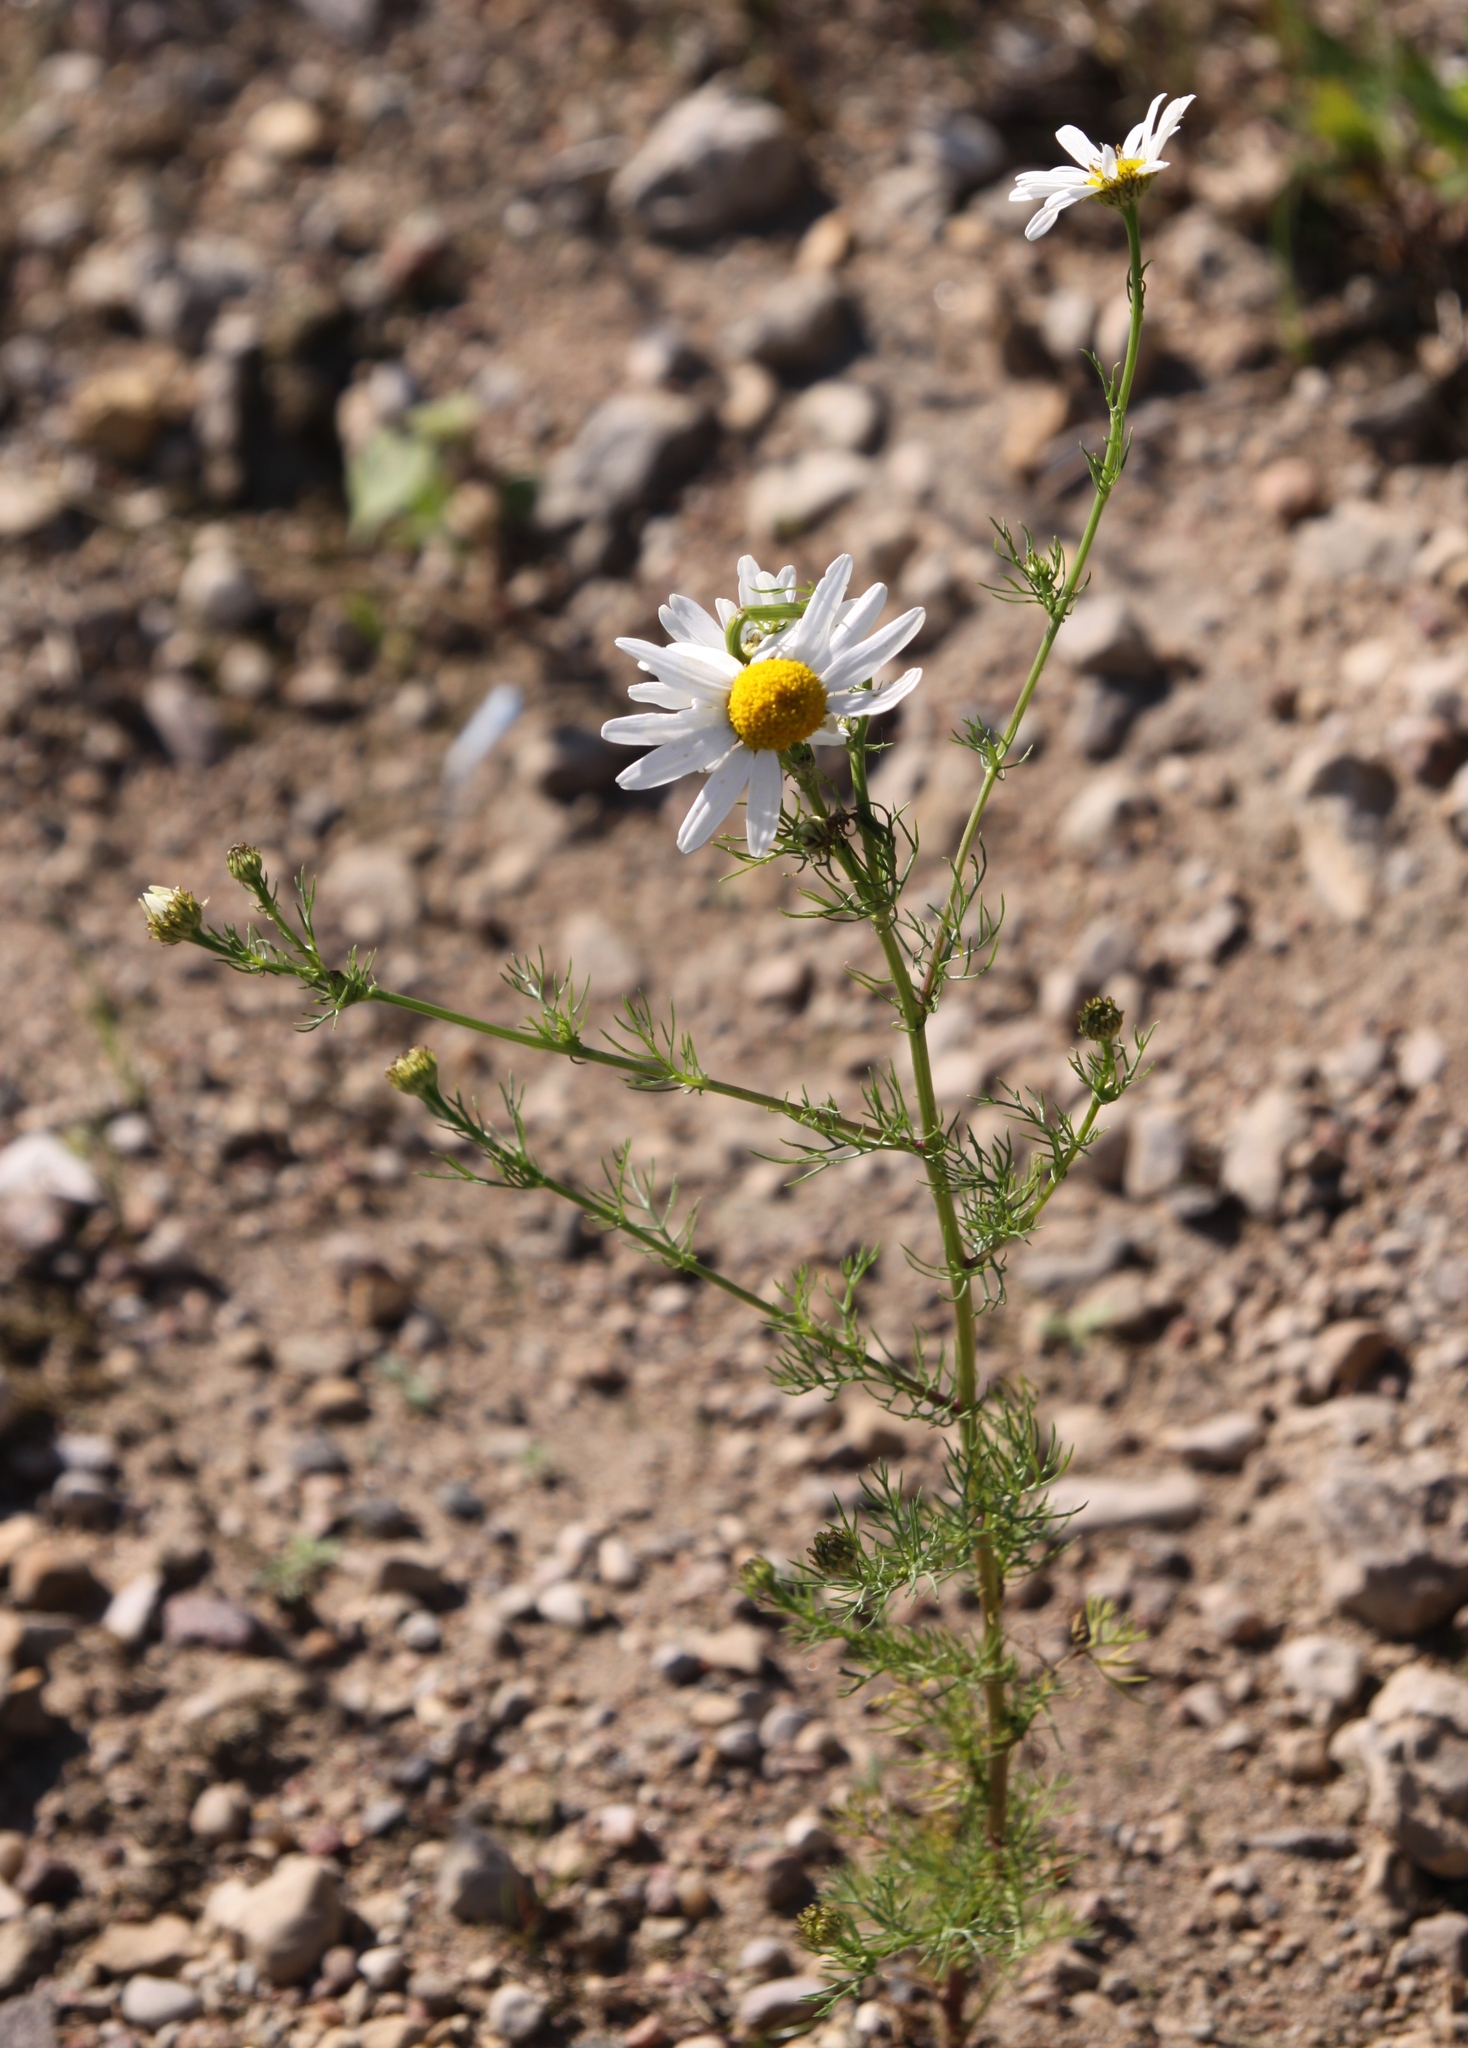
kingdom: Plantae
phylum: Tracheophyta
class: Magnoliopsida
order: Asterales
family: Asteraceae
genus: Tripleurospermum
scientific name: Tripleurospermum inodorum
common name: Scentless mayweed
